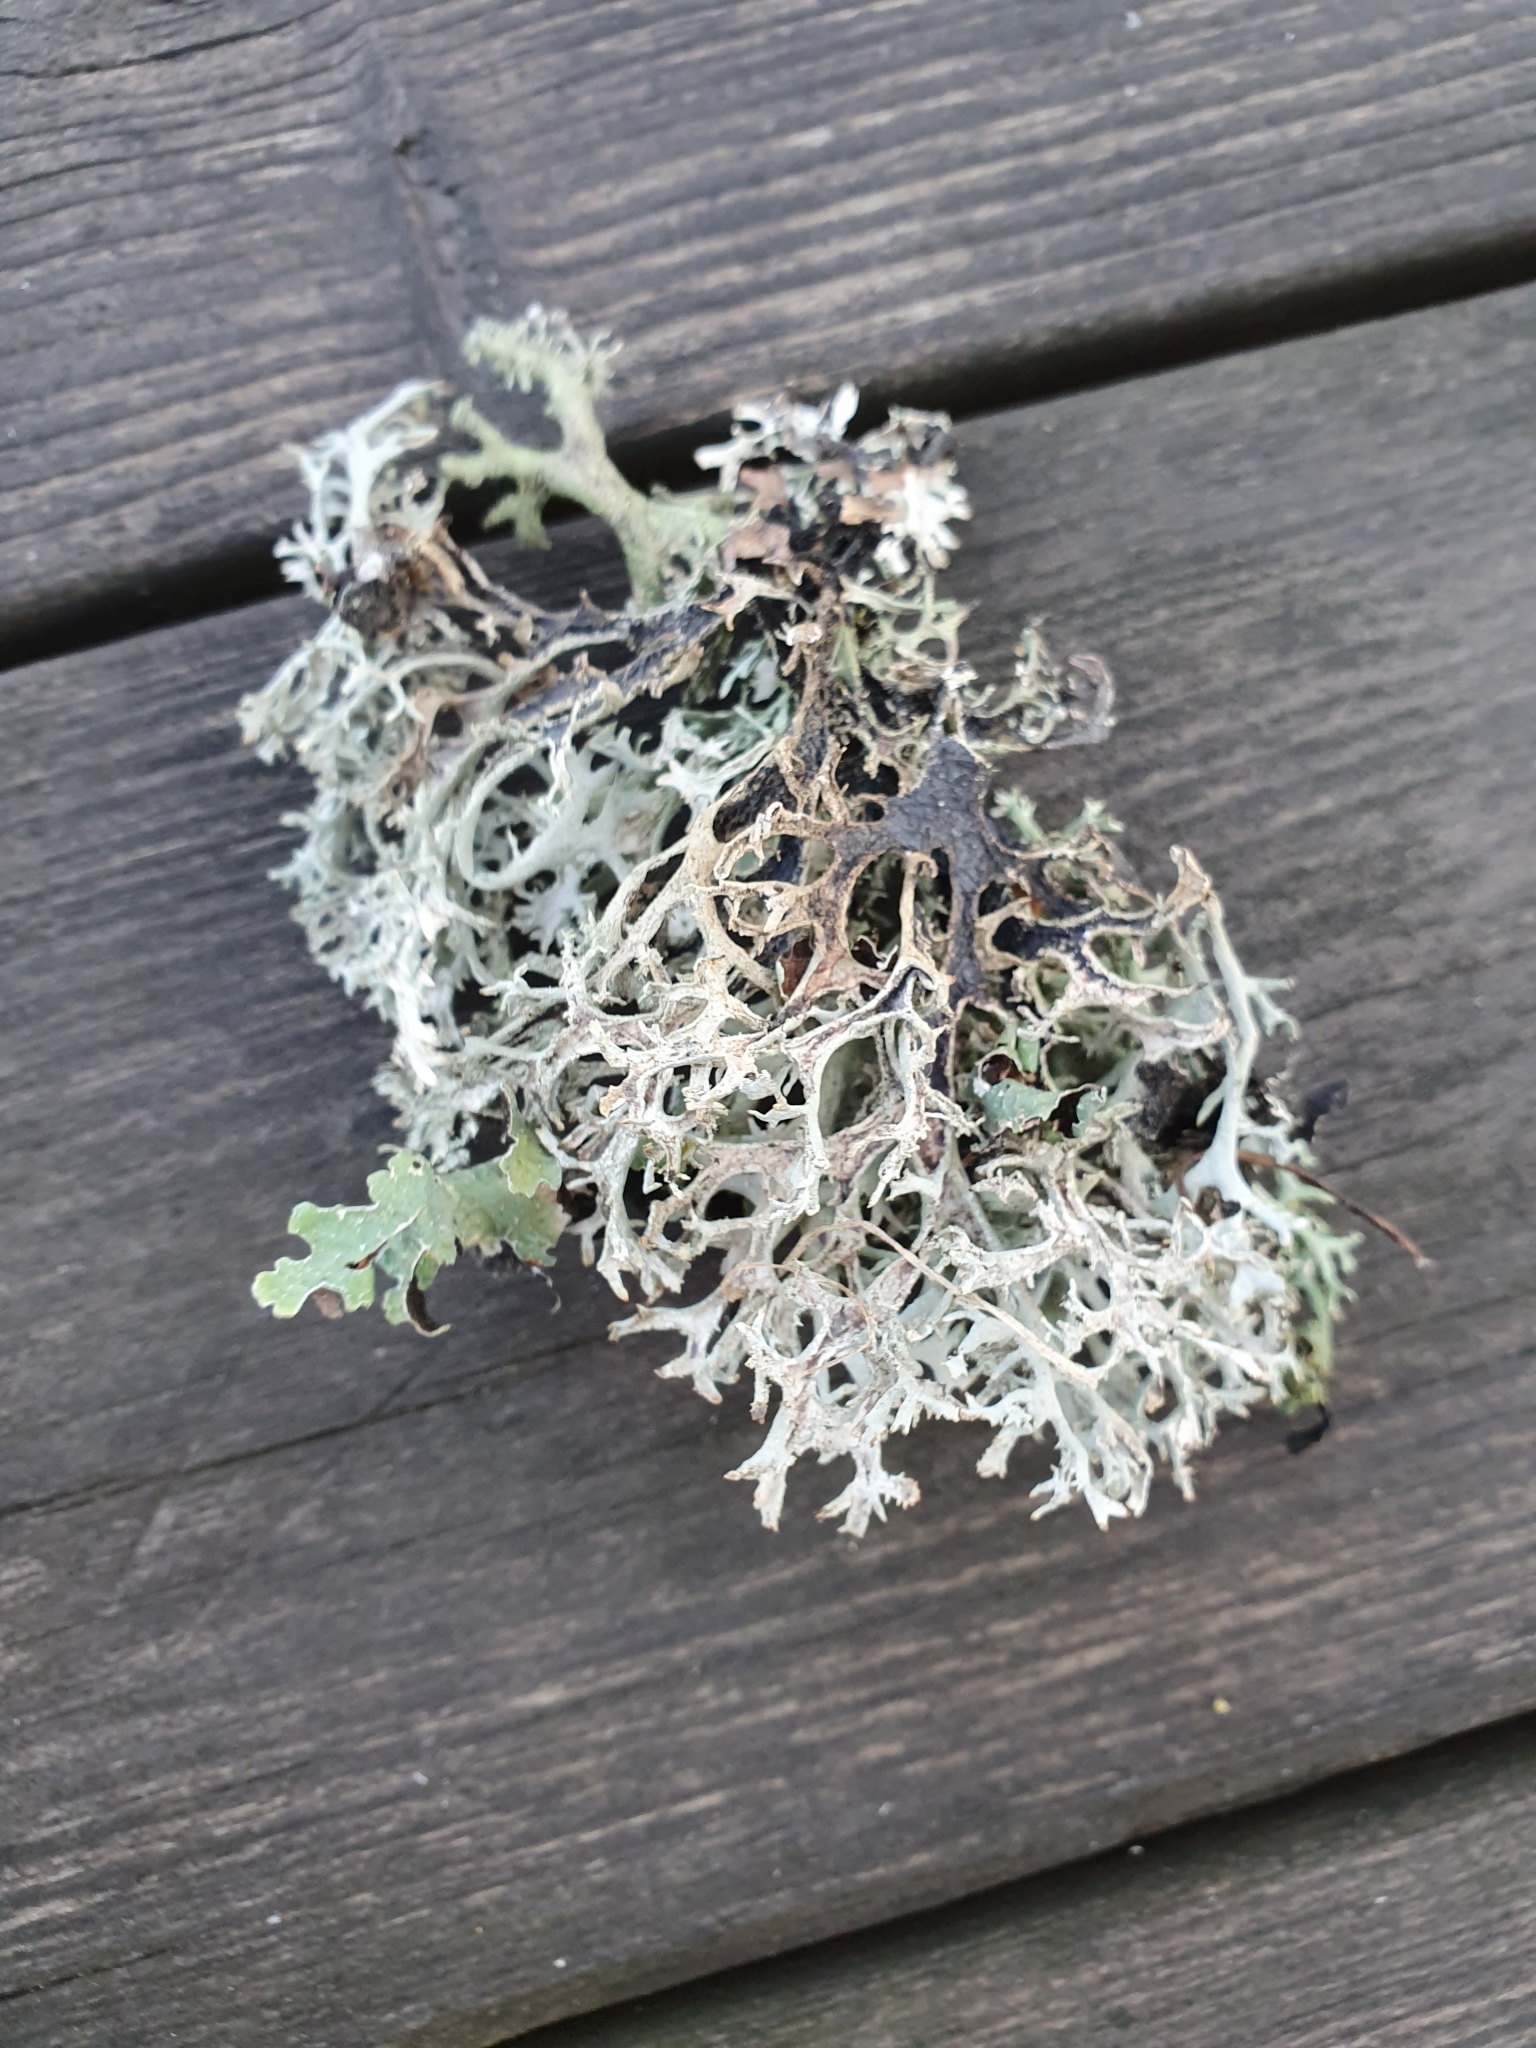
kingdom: Fungi
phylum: Ascomycota
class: Lecanoromycetes
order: Lecanorales
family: Parmeliaceae
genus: Pseudevernia
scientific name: Pseudevernia furfuracea
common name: Tree moss
